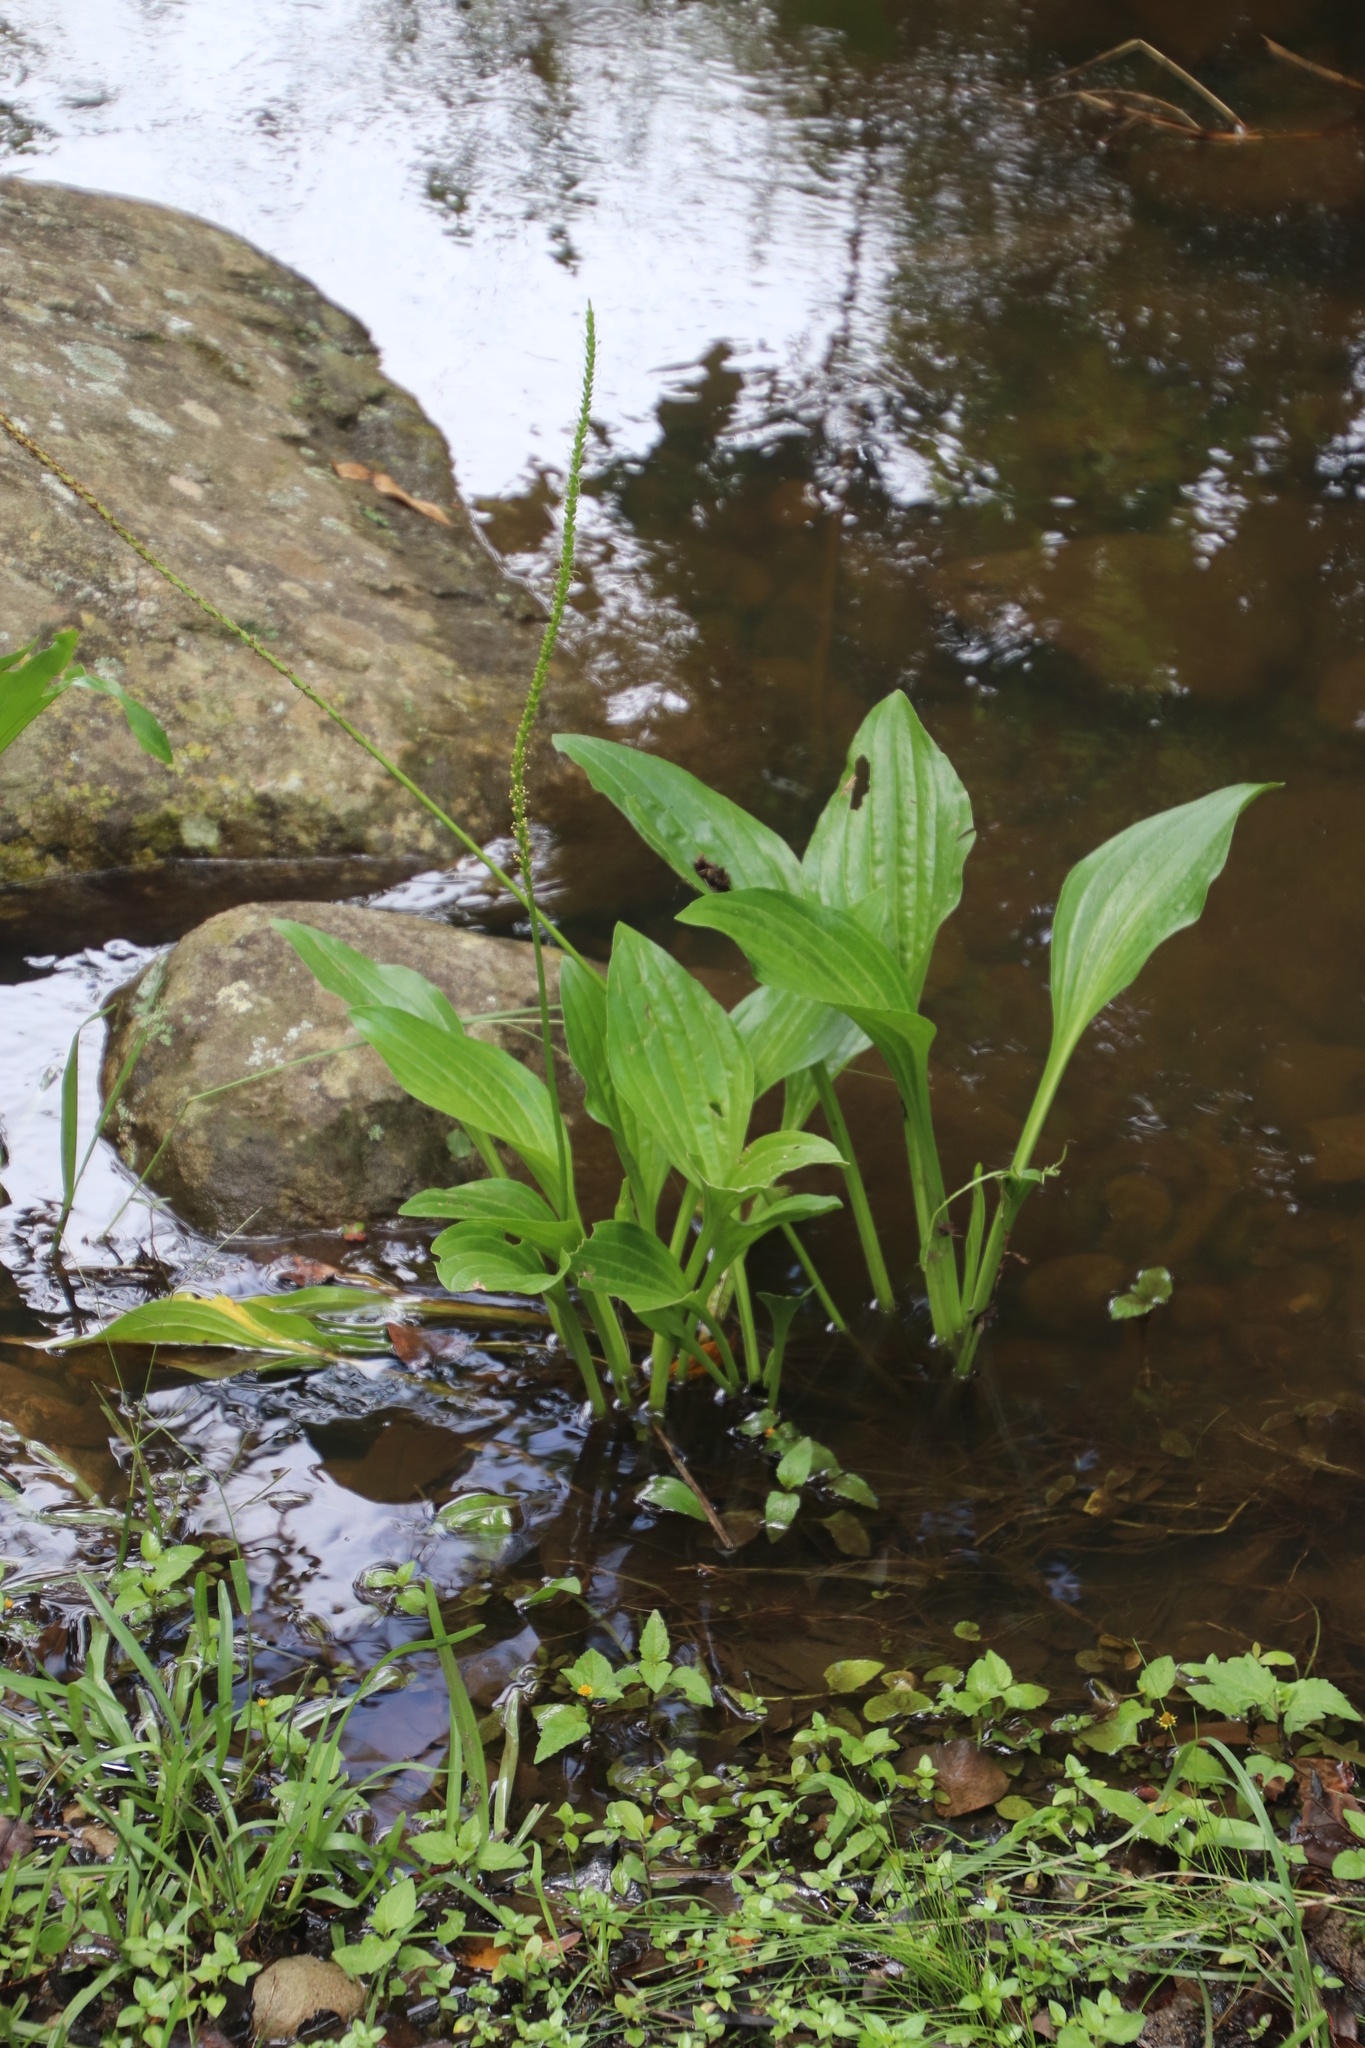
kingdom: Plantae
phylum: Tracheophyta
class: Magnoliopsida
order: Lamiales
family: Plantaginaceae
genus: Plantago
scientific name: Plantago major
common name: Common plantain
